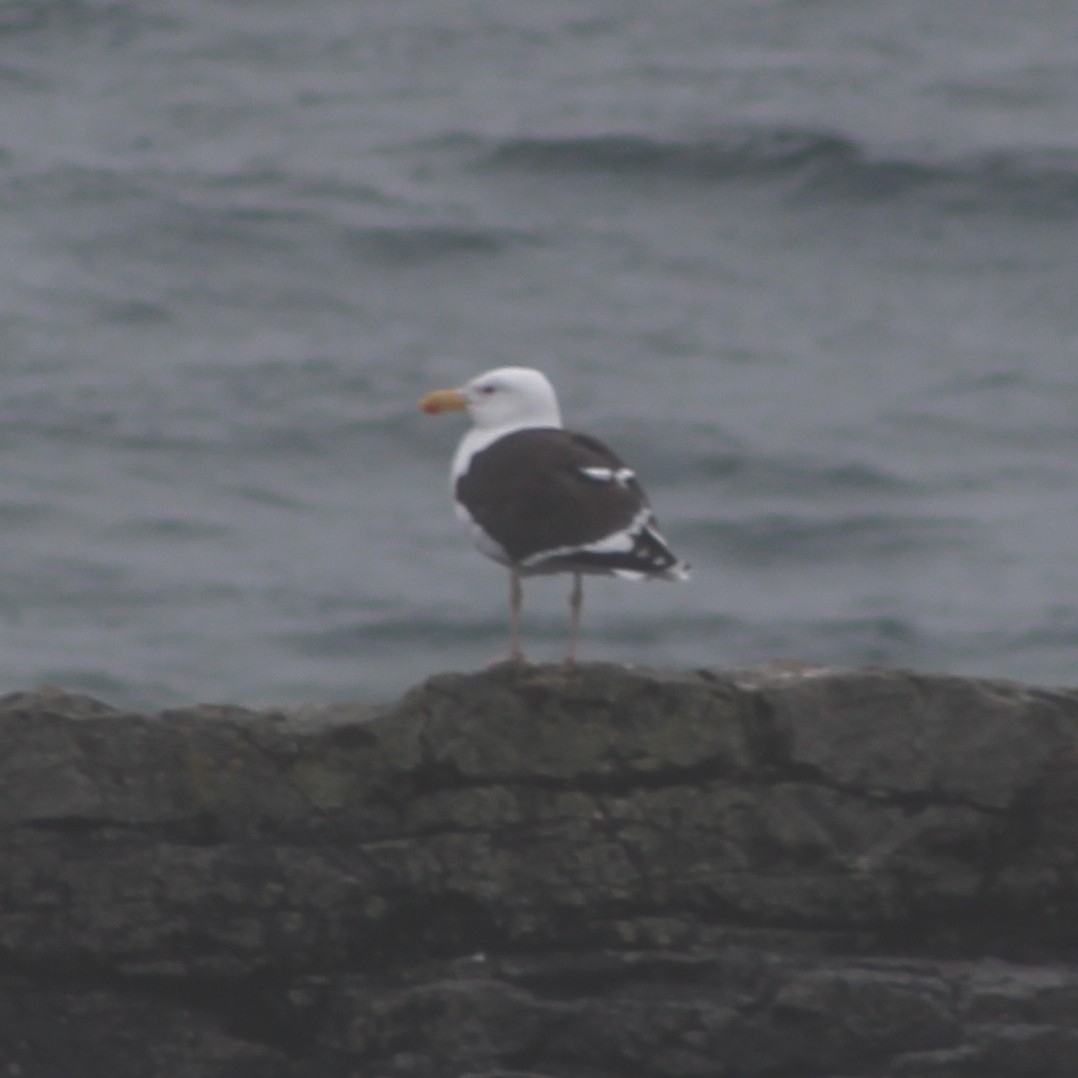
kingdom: Animalia
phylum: Chordata
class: Aves
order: Charadriiformes
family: Laridae
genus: Larus
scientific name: Larus marinus
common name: Great black-backed gull
